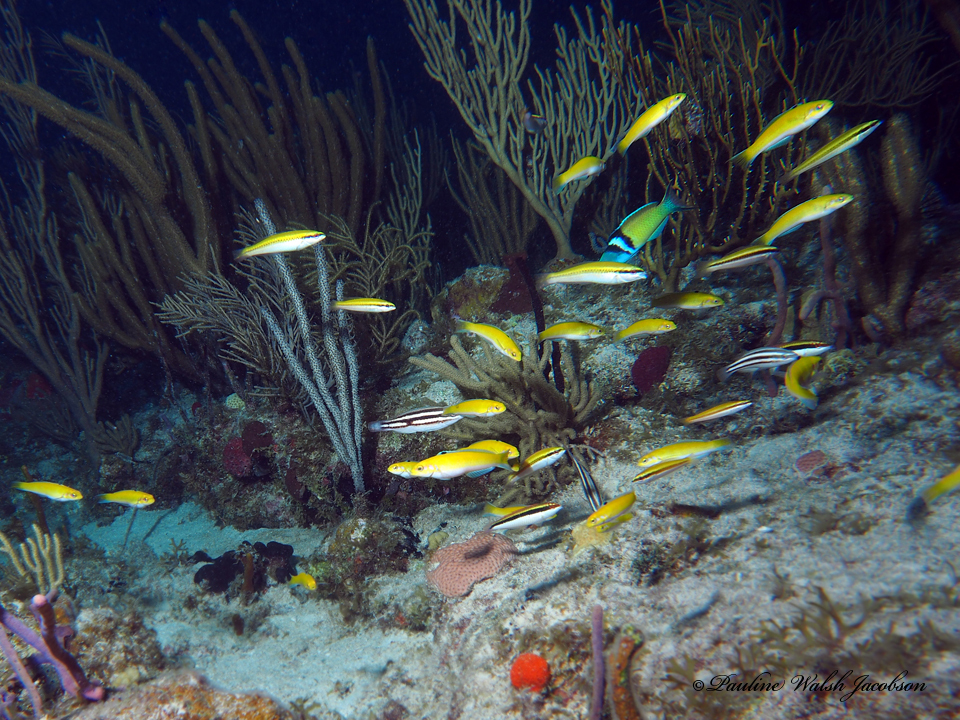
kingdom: Animalia
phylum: Chordata
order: Perciformes
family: Labridae
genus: Thalassoma
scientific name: Thalassoma bifasciatum
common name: Bluehead wrasse
